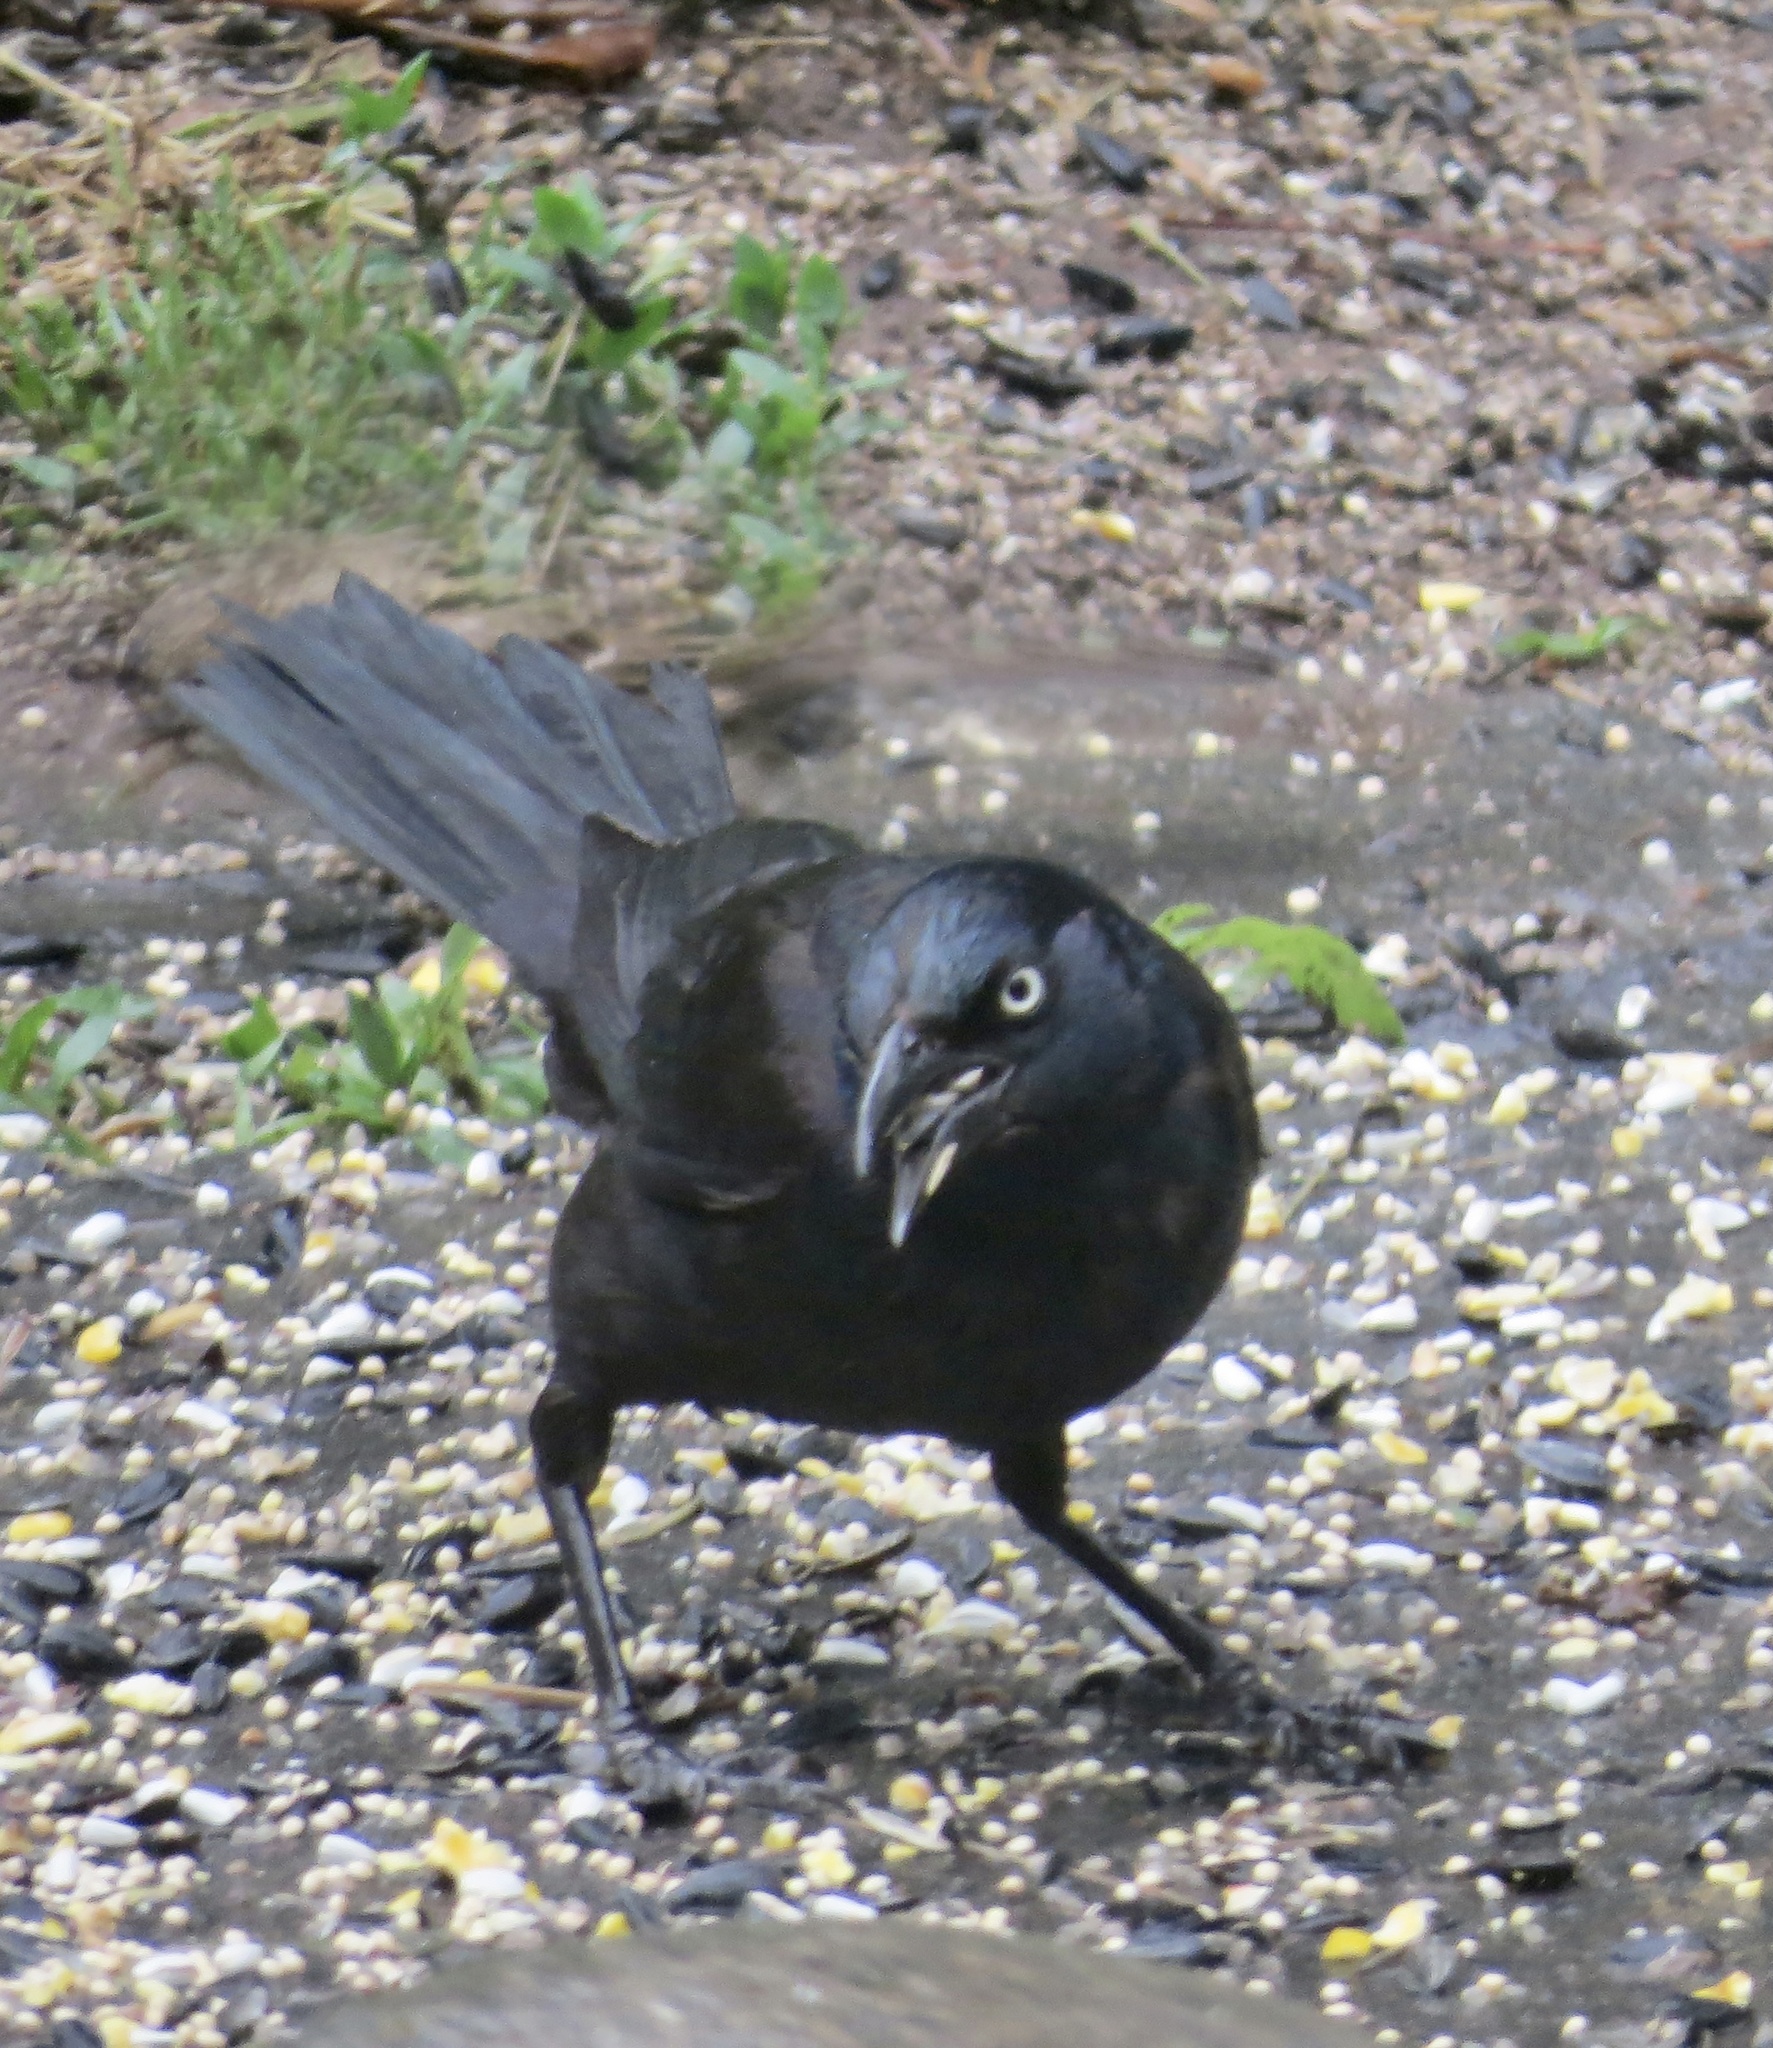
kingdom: Animalia
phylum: Chordata
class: Aves
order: Passeriformes
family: Icteridae
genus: Quiscalus
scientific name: Quiscalus quiscula
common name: Common grackle
